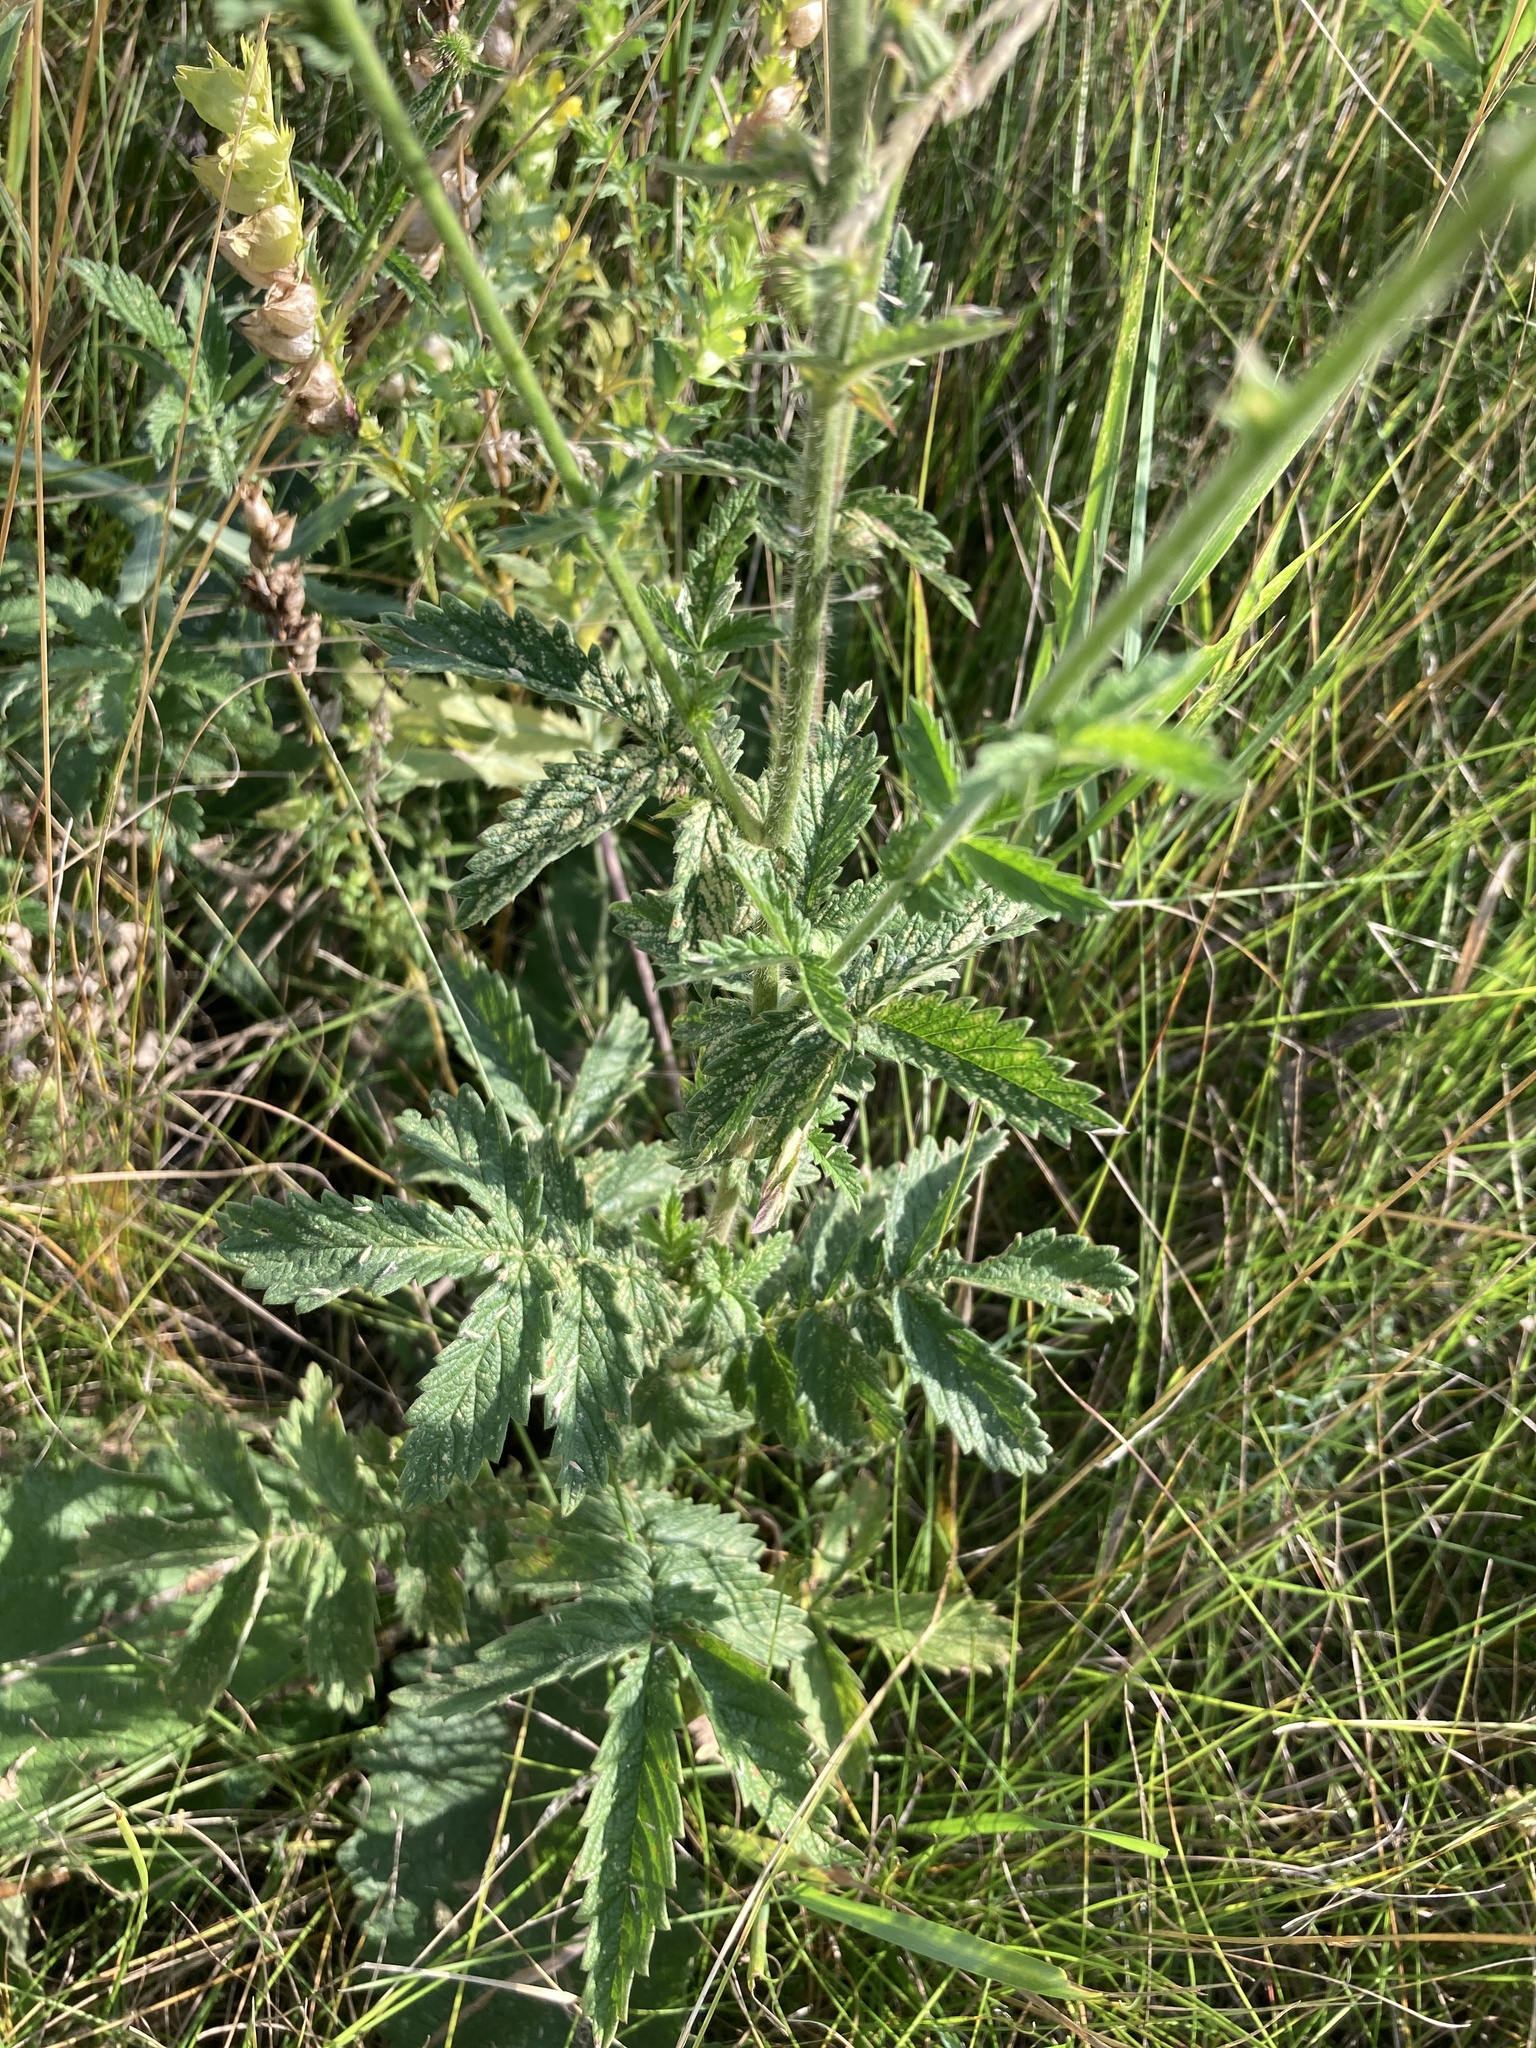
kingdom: Plantae
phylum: Tracheophyta
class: Magnoliopsida
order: Rosales
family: Rosaceae
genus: Agrimonia
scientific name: Agrimonia eupatoria
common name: Agrimony
